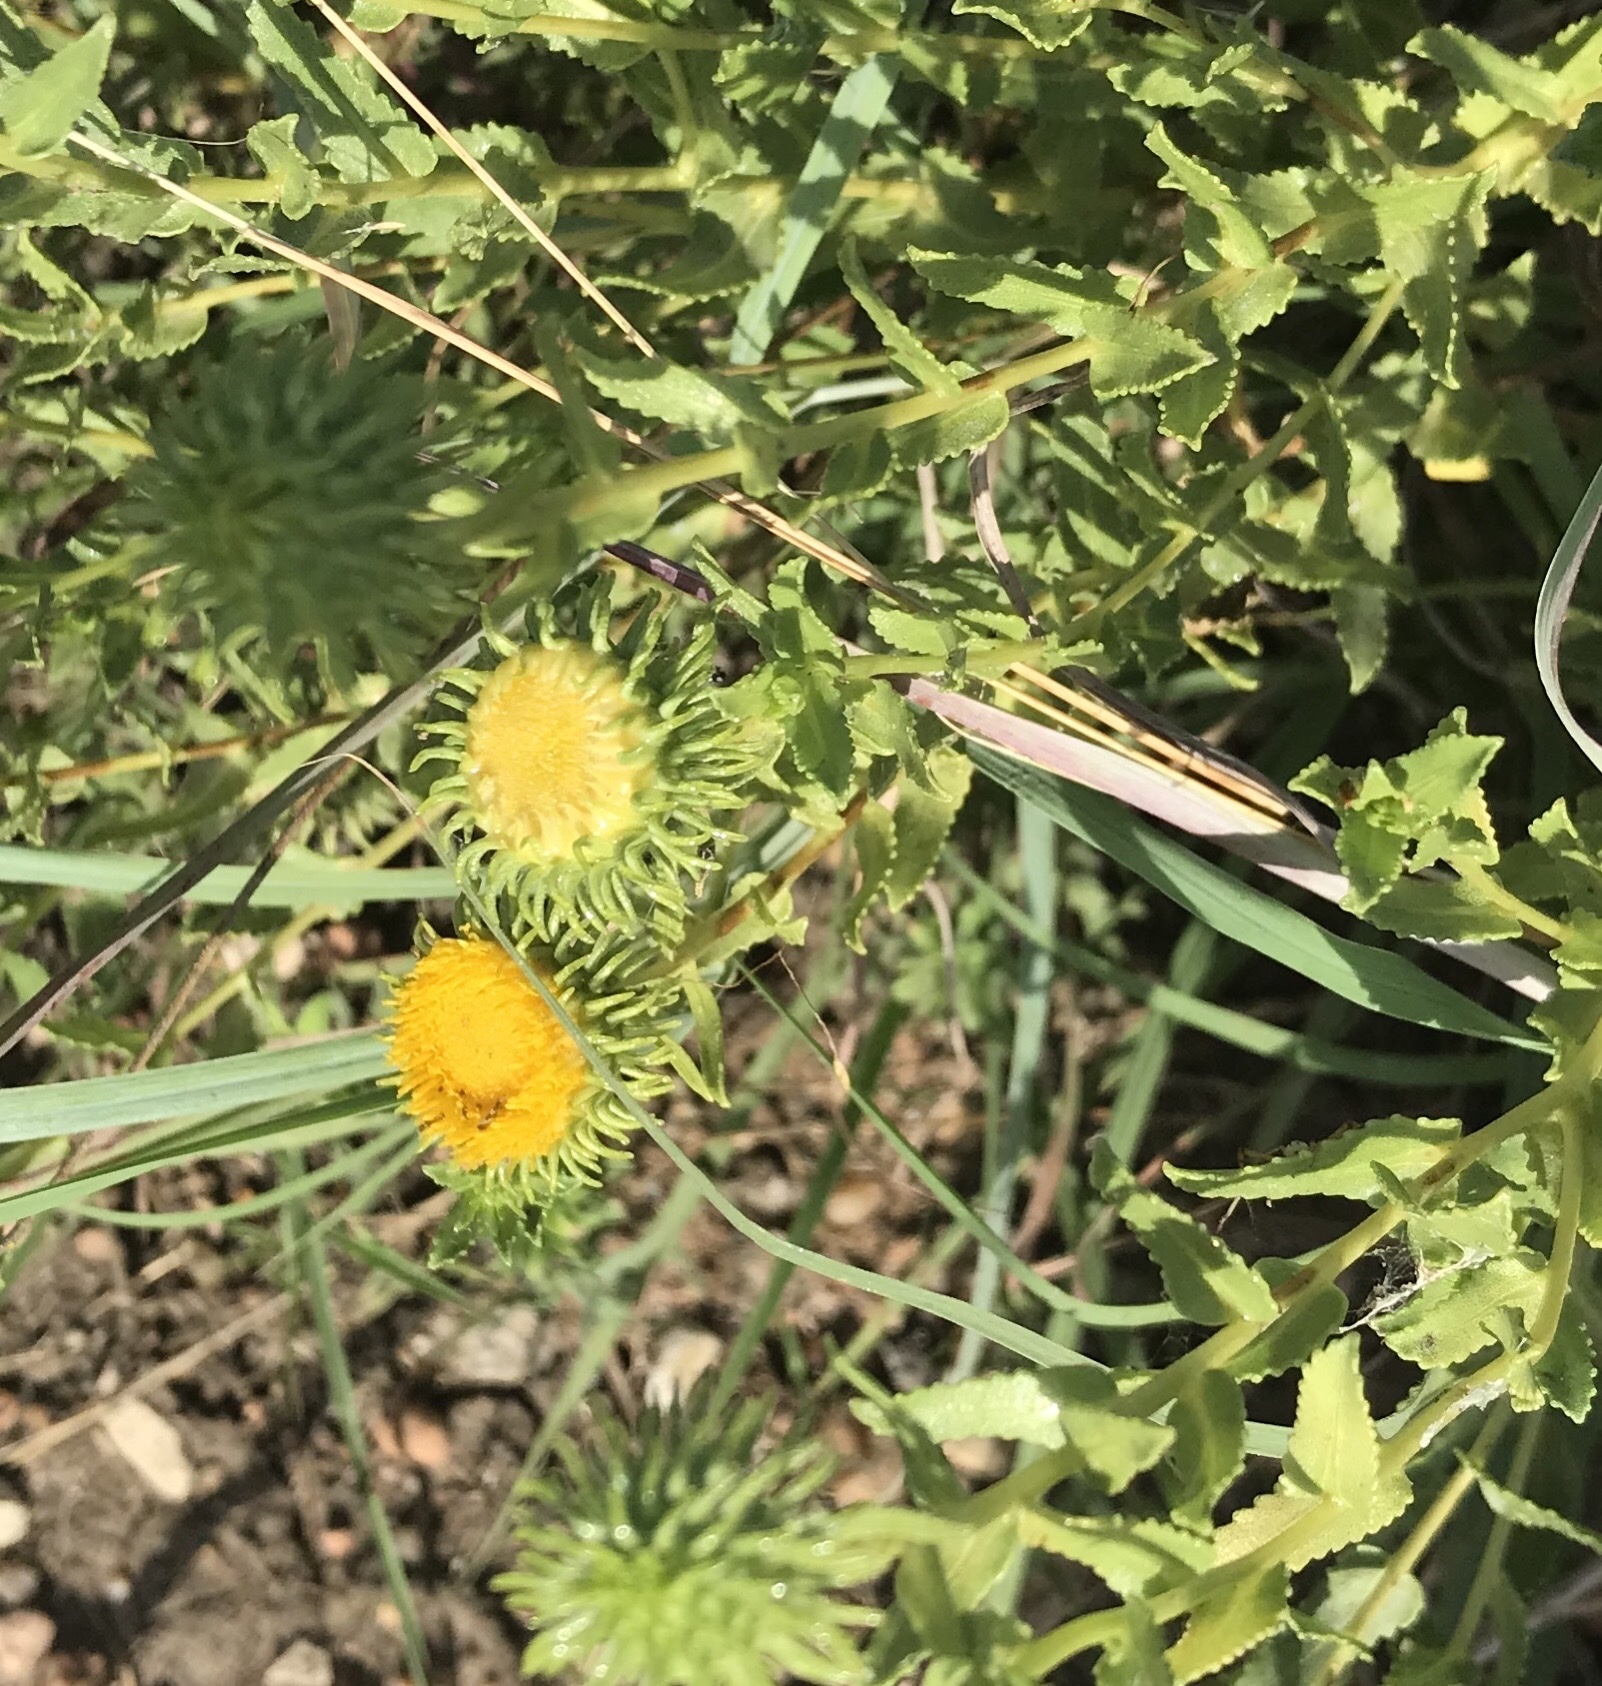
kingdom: Plantae
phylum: Tracheophyta
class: Magnoliopsida
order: Asterales
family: Asteraceae
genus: Grindelia
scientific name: Grindelia nuda
